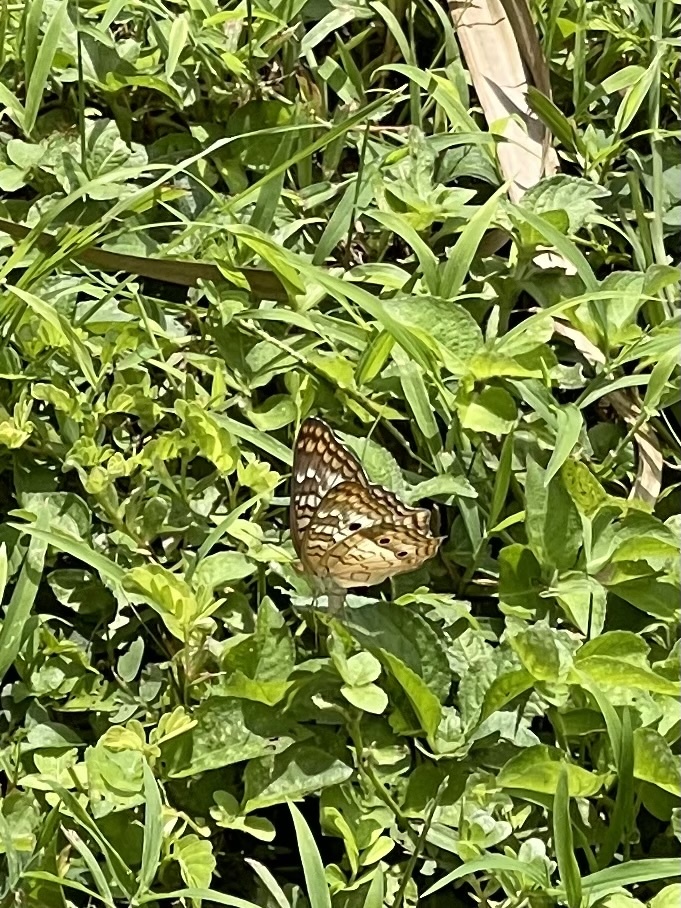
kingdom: Animalia
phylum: Arthropoda
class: Insecta
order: Lepidoptera
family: Nymphalidae
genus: Anartia
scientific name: Anartia jatrophae
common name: White peacock
